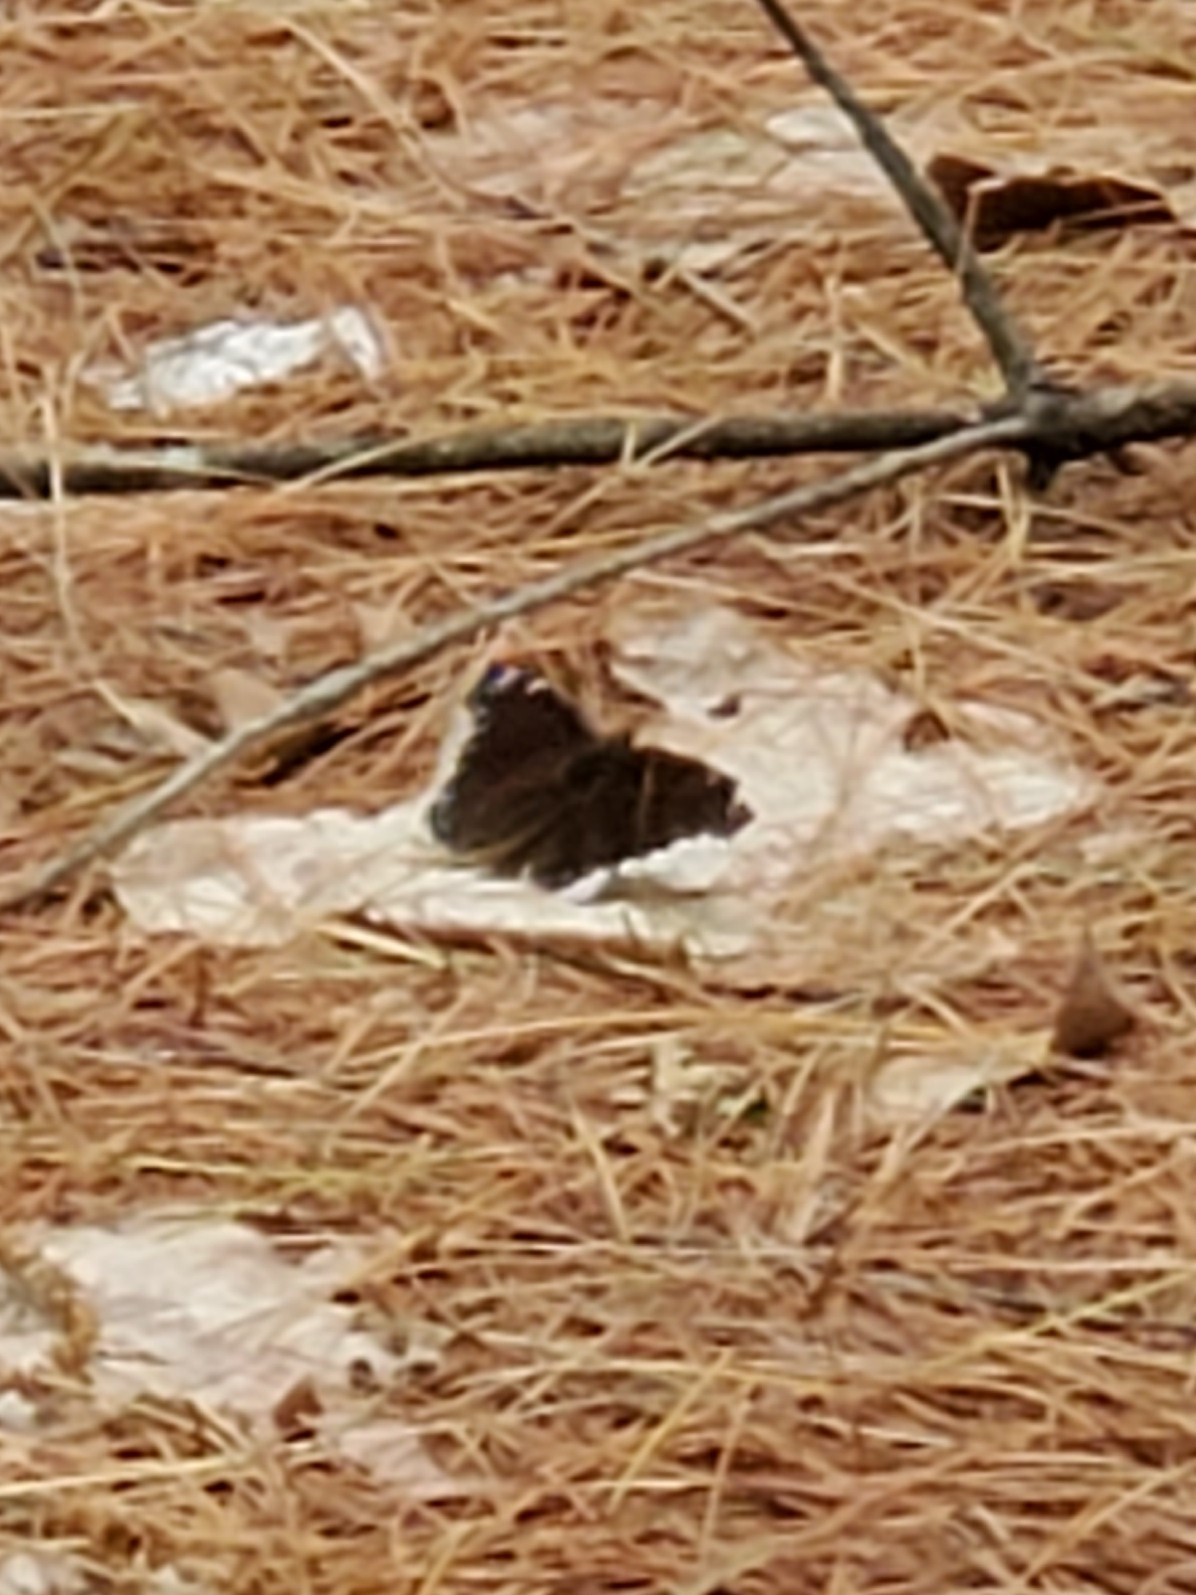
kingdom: Animalia
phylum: Arthropoda
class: Insecta
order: Lepidoptera
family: Nymphalidae
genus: Nymphalis
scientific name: Nymphalis antiopa
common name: Camberwell beauty
